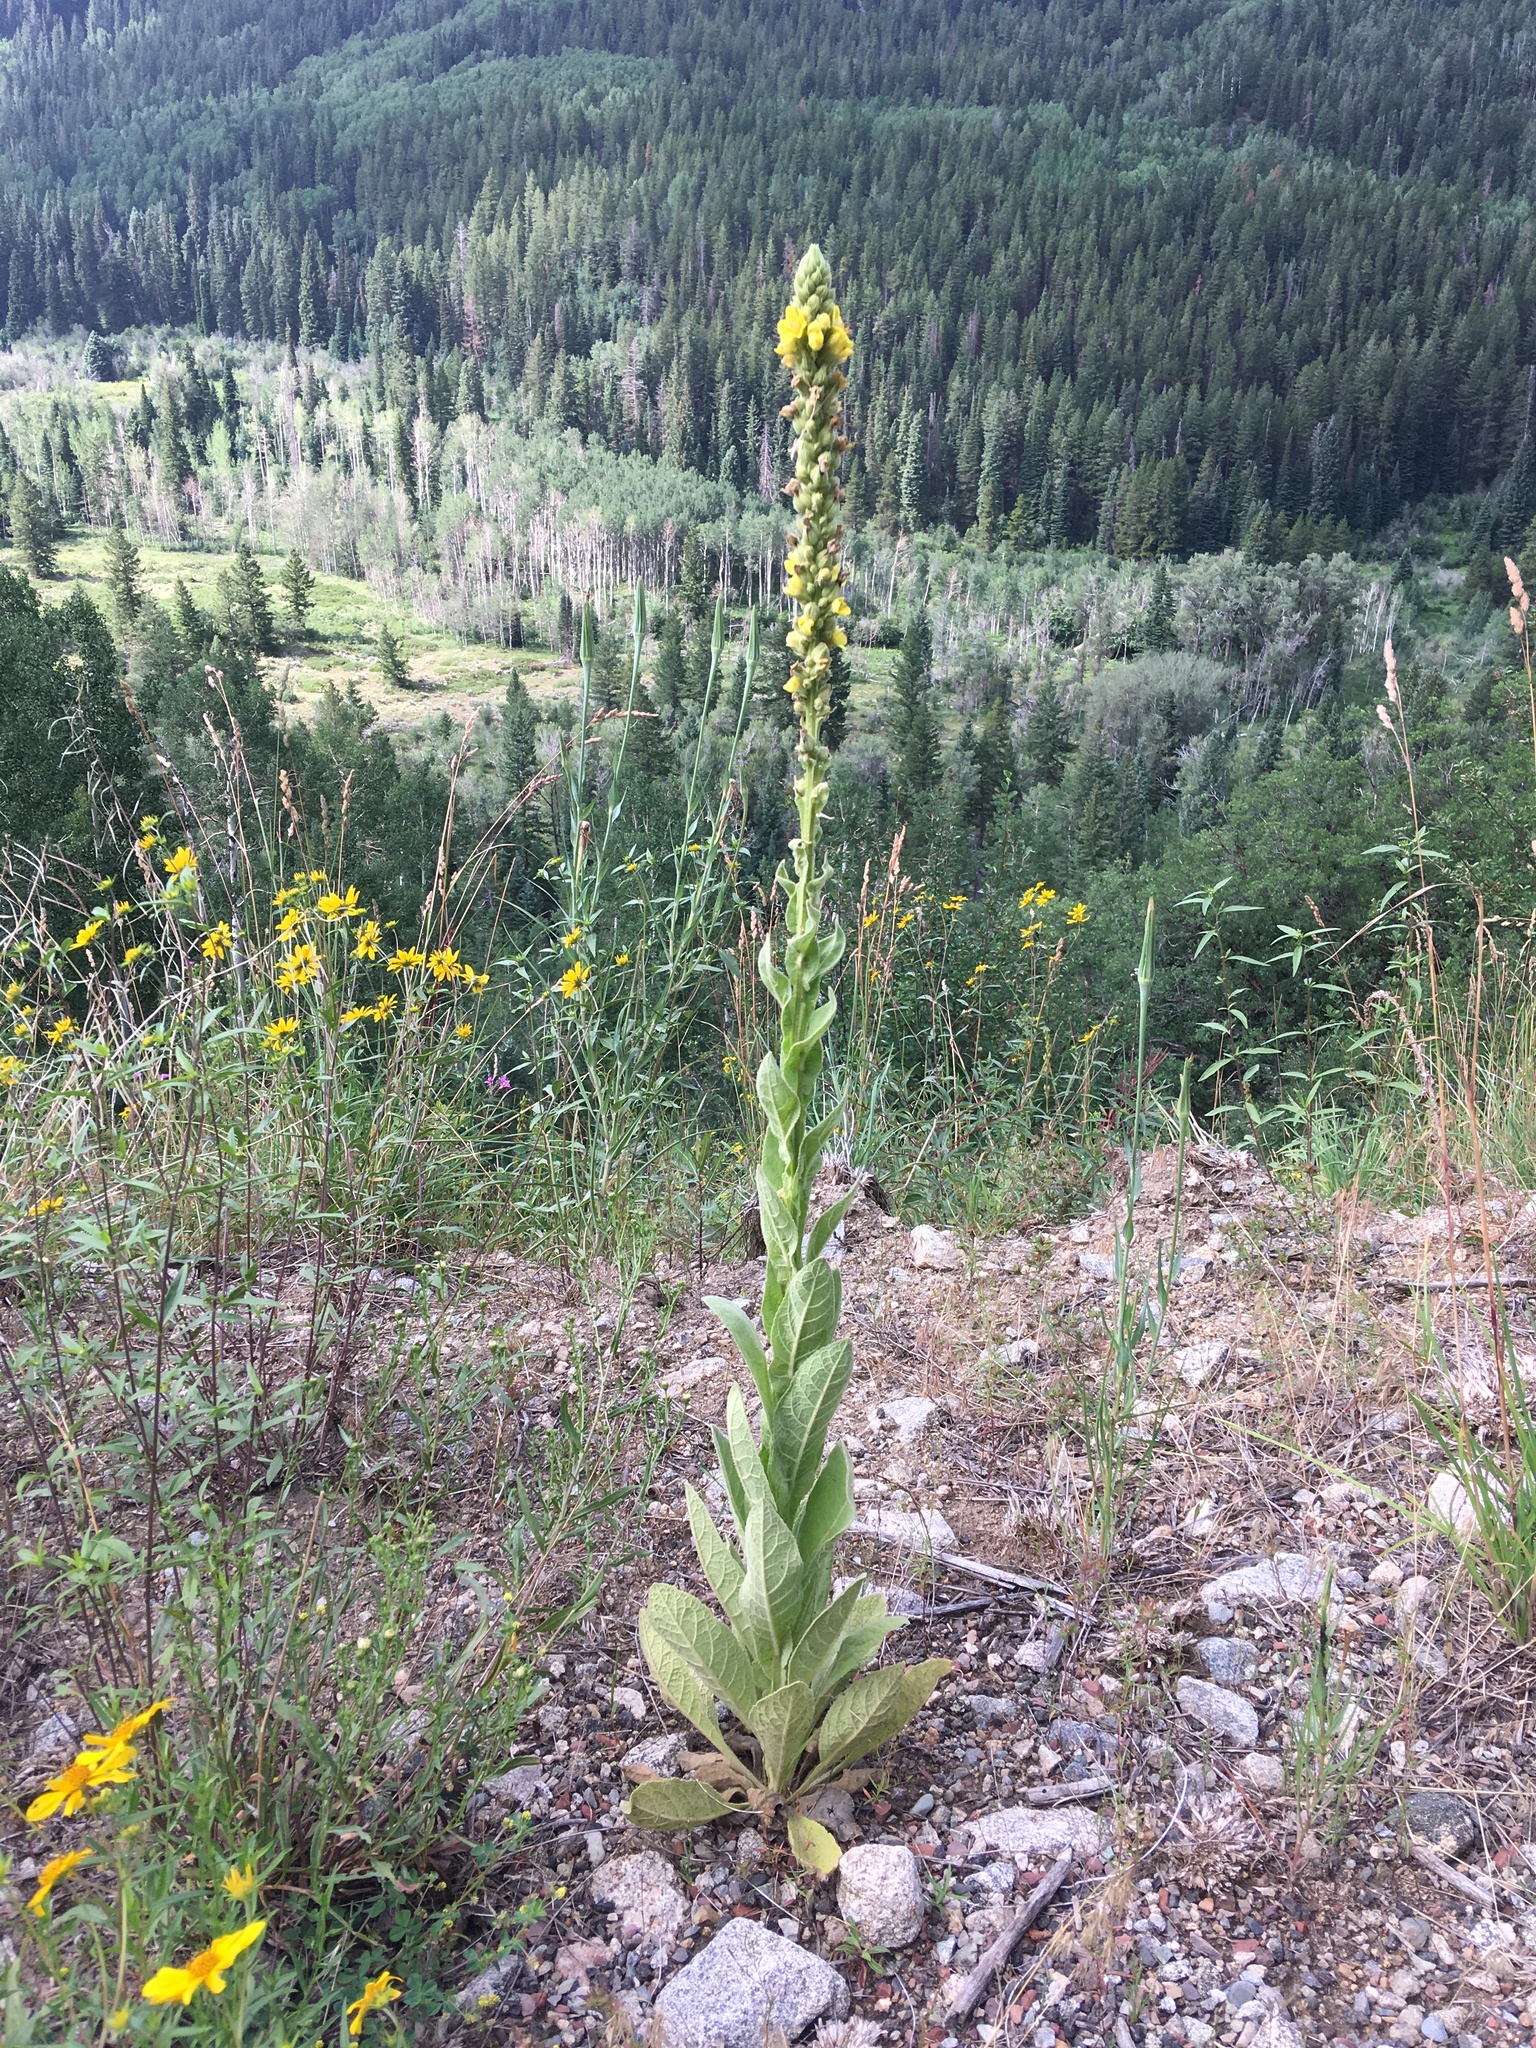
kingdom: Plantae
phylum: Tracheophyta
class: Magnoliopsida
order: Lamiales
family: Scrophulariaceae
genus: Verbascum
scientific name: Verbascum thapsus
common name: Common mullein
